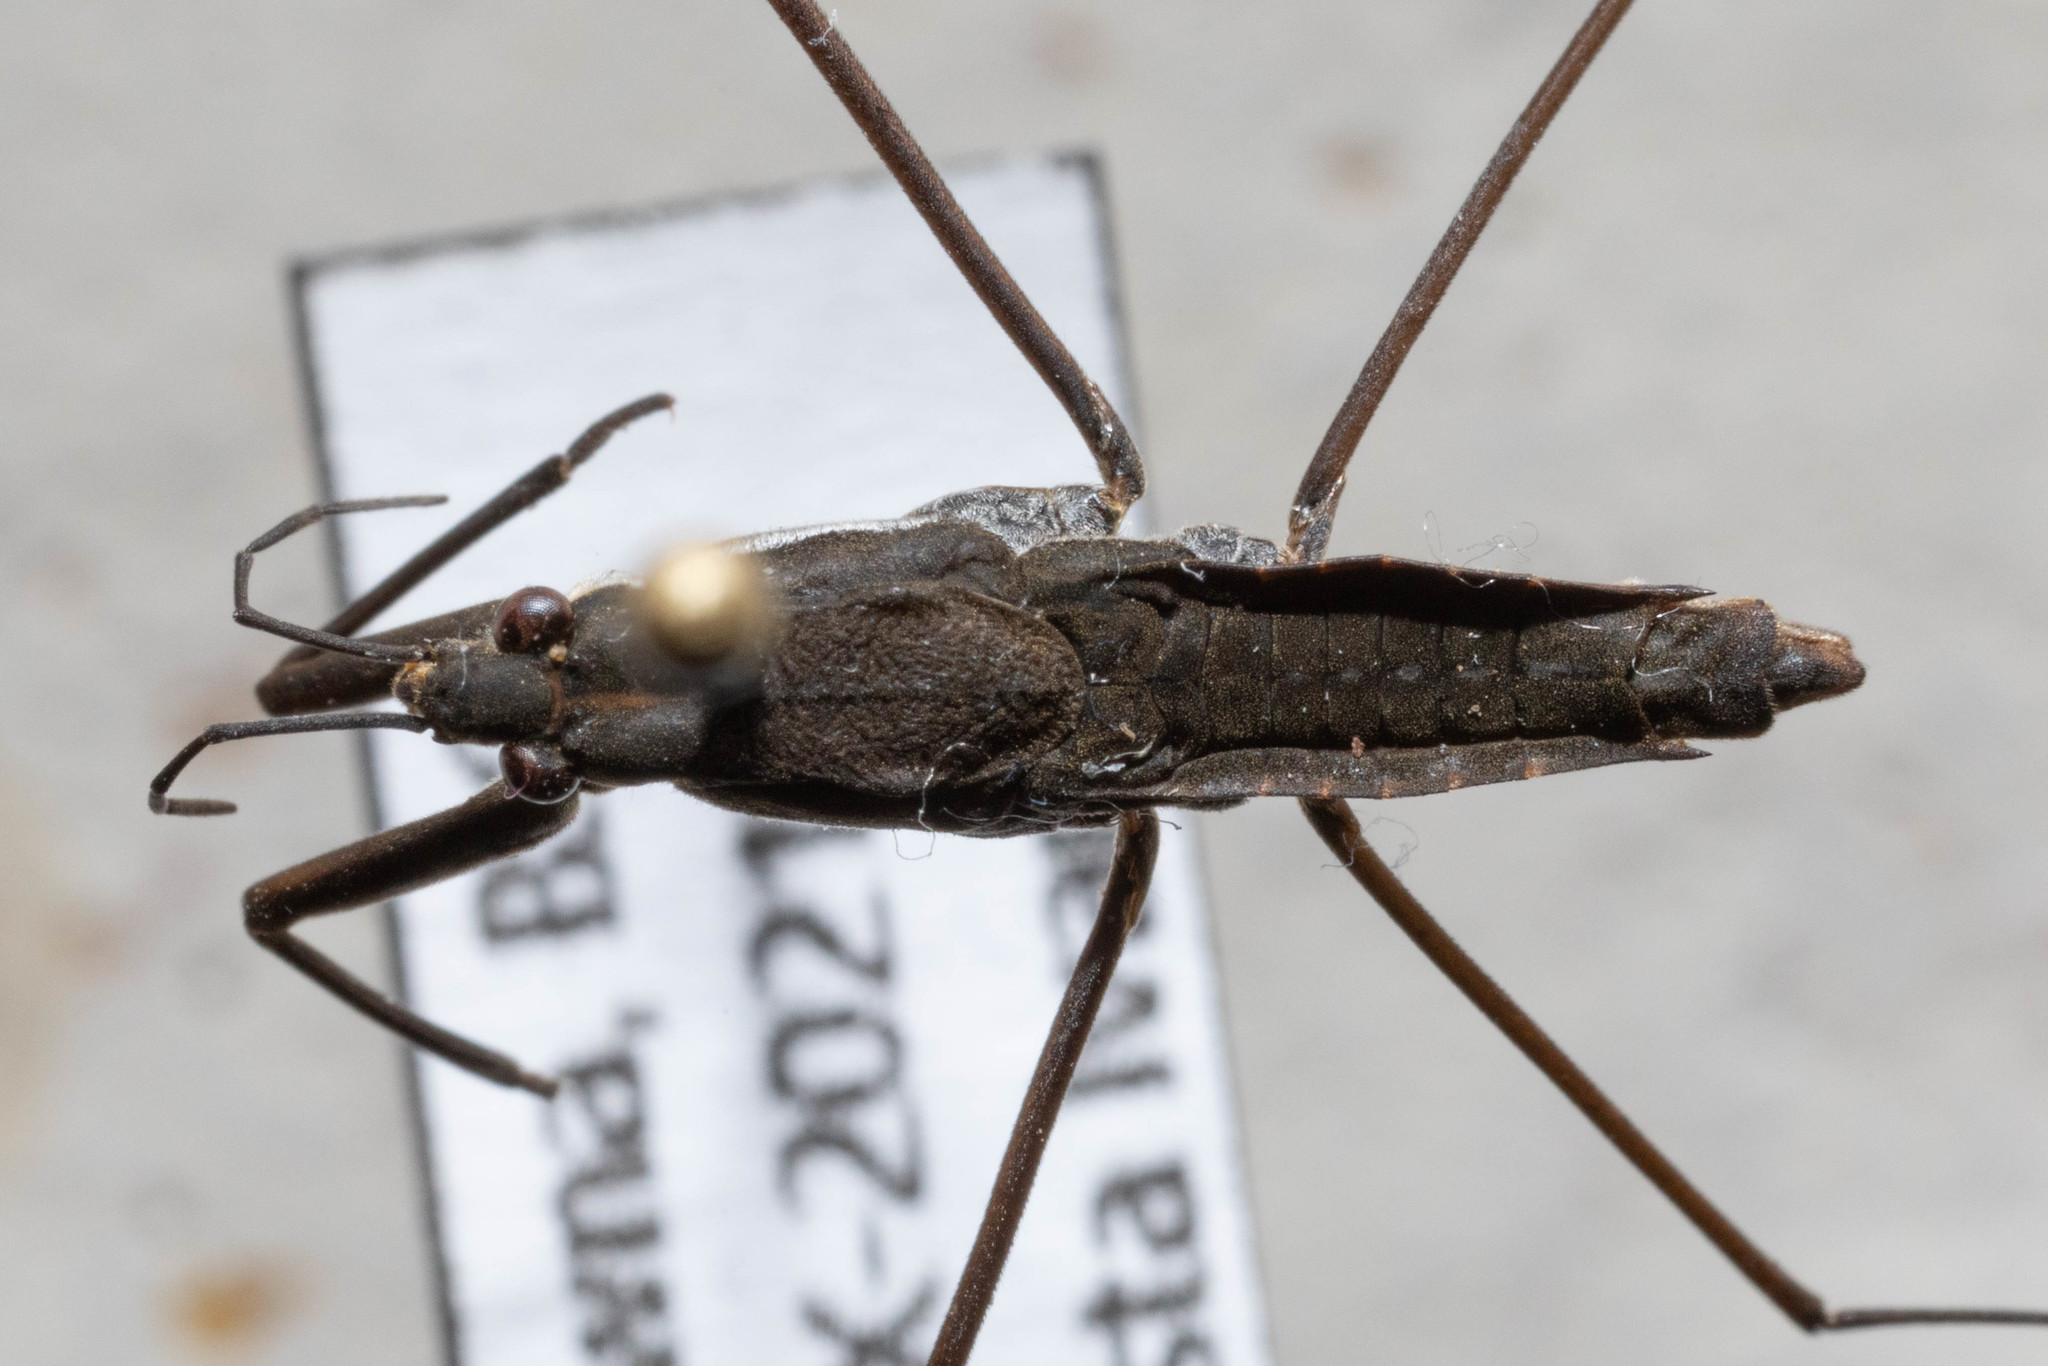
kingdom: Animalia
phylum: Arthropoda
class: Insecta
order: Hemiptera
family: Gerridae
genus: Aquarius
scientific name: Aquarius remigis
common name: Common water strider
